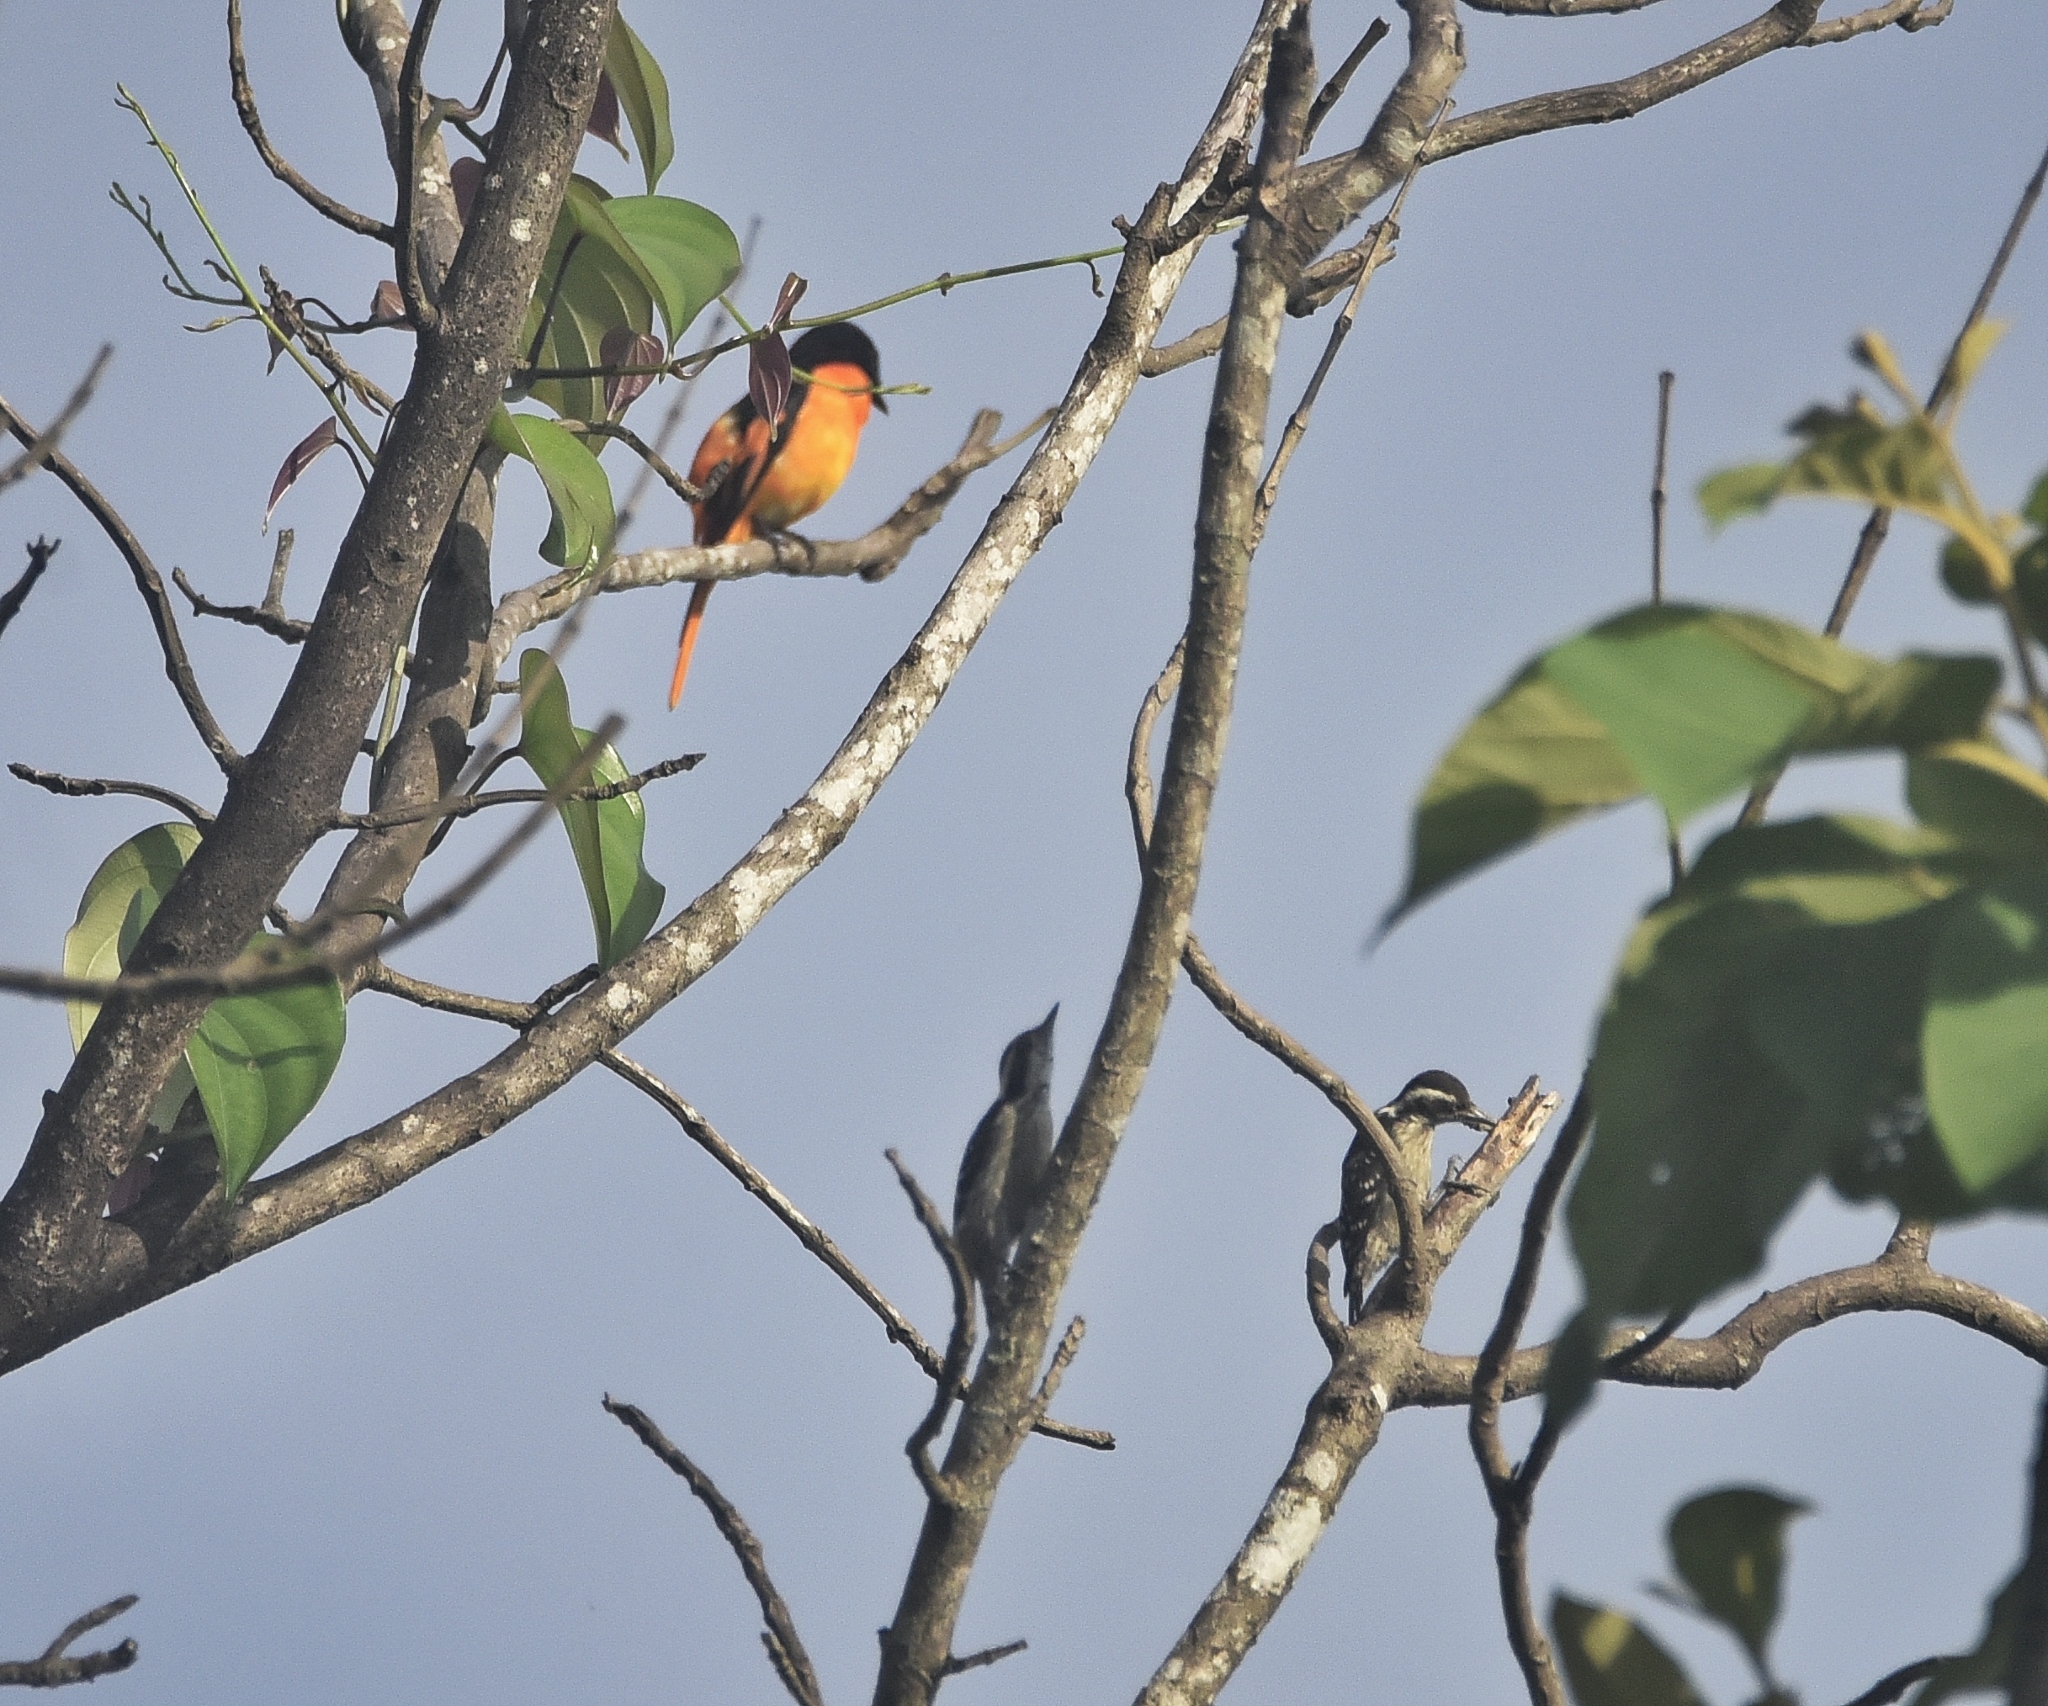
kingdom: Animalia
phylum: Chordata
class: Aves
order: Passeriformes
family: Campephagidae
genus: Pericrocotus
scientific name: Pericrocotus flammeus
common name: Orange minivet
